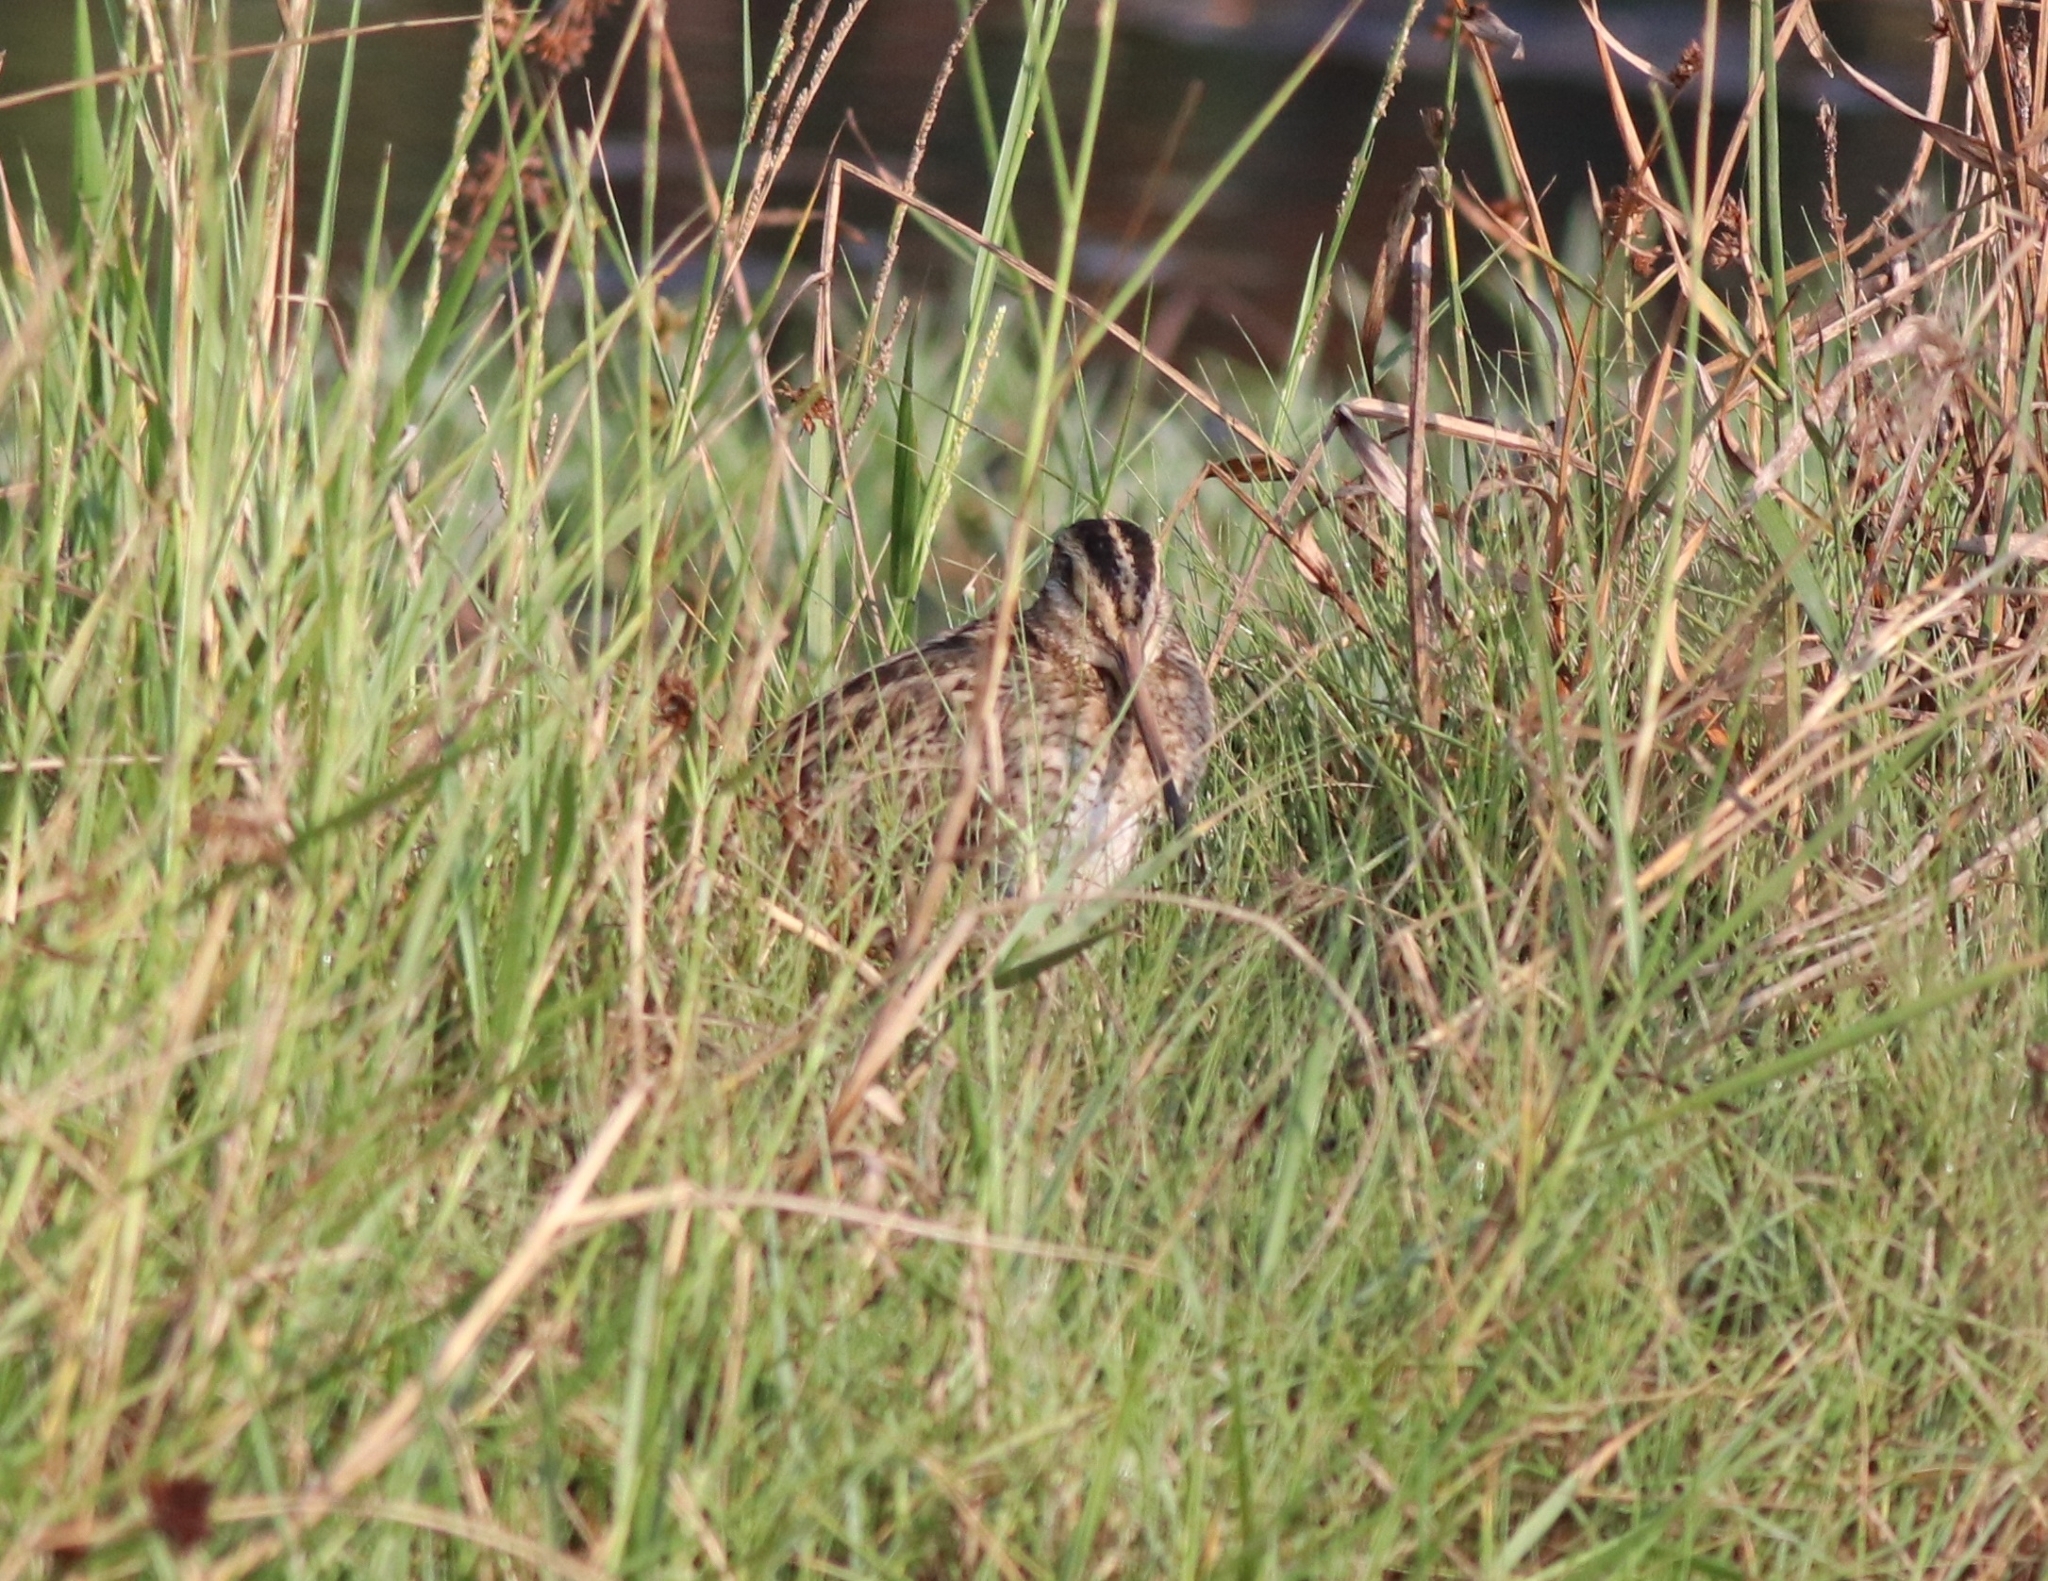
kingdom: Animalia
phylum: Chordata
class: Aves
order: Charadriiformes
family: Scolopacidae
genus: Gallinago
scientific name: Gallinago gallinago
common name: Common snipe
